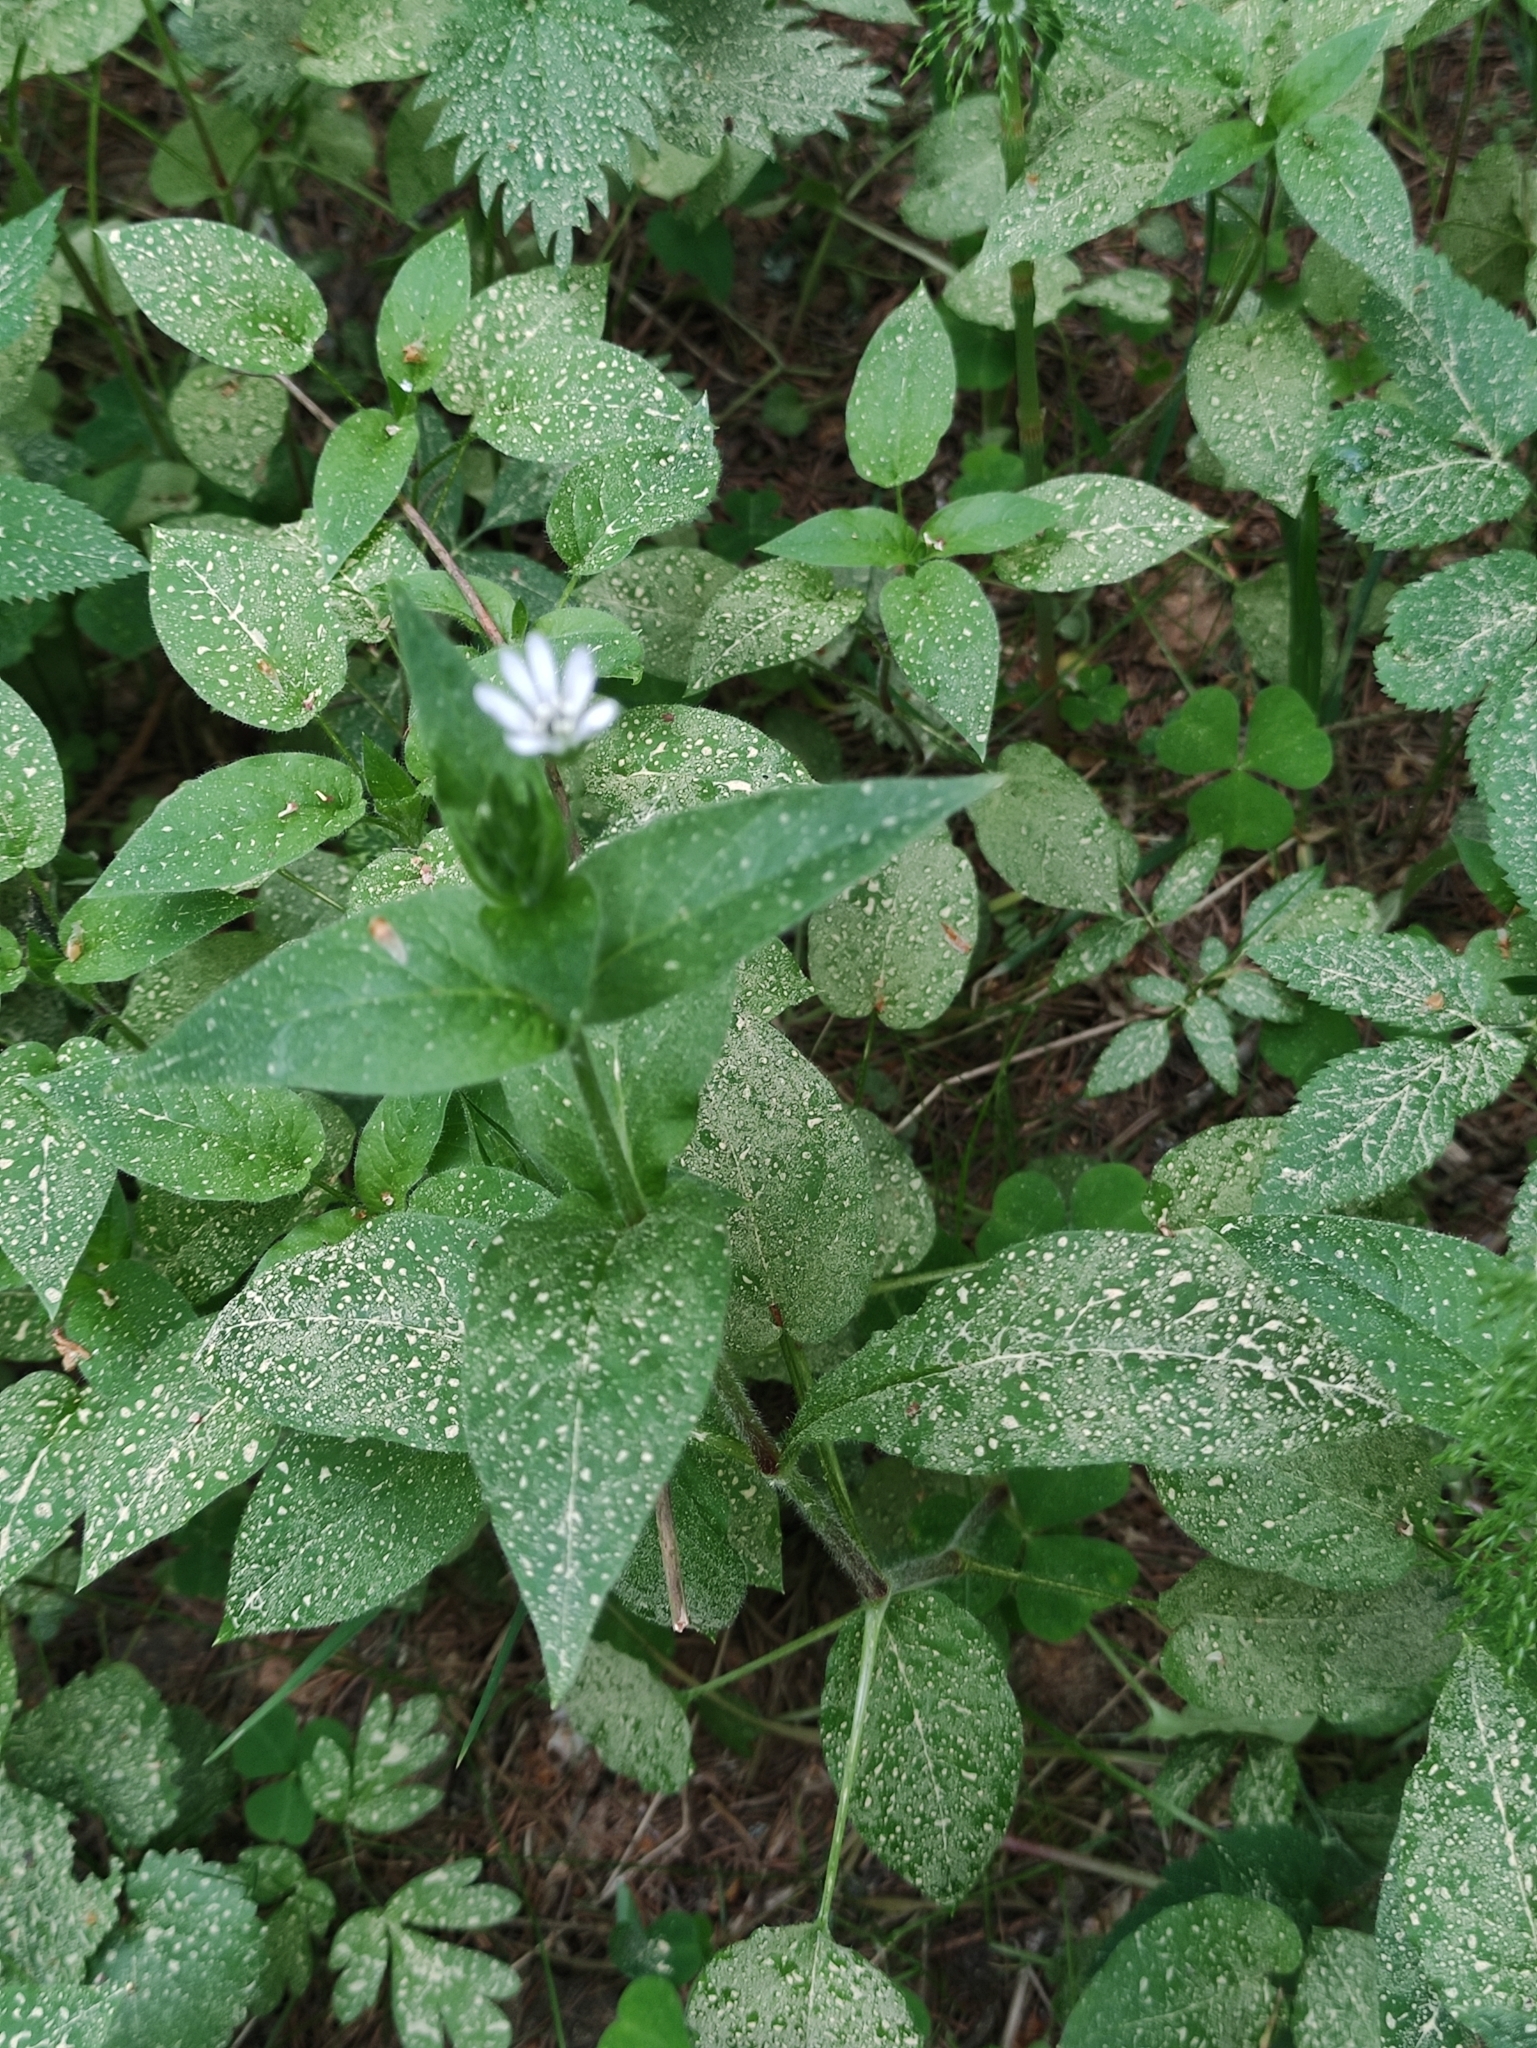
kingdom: Plantae
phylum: Tracheophyta
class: Magnoliopsida
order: Caryophyllales
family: Caryophyllaceae
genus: Stellaria
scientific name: Stellaria nemorum
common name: Wood stitchwort
